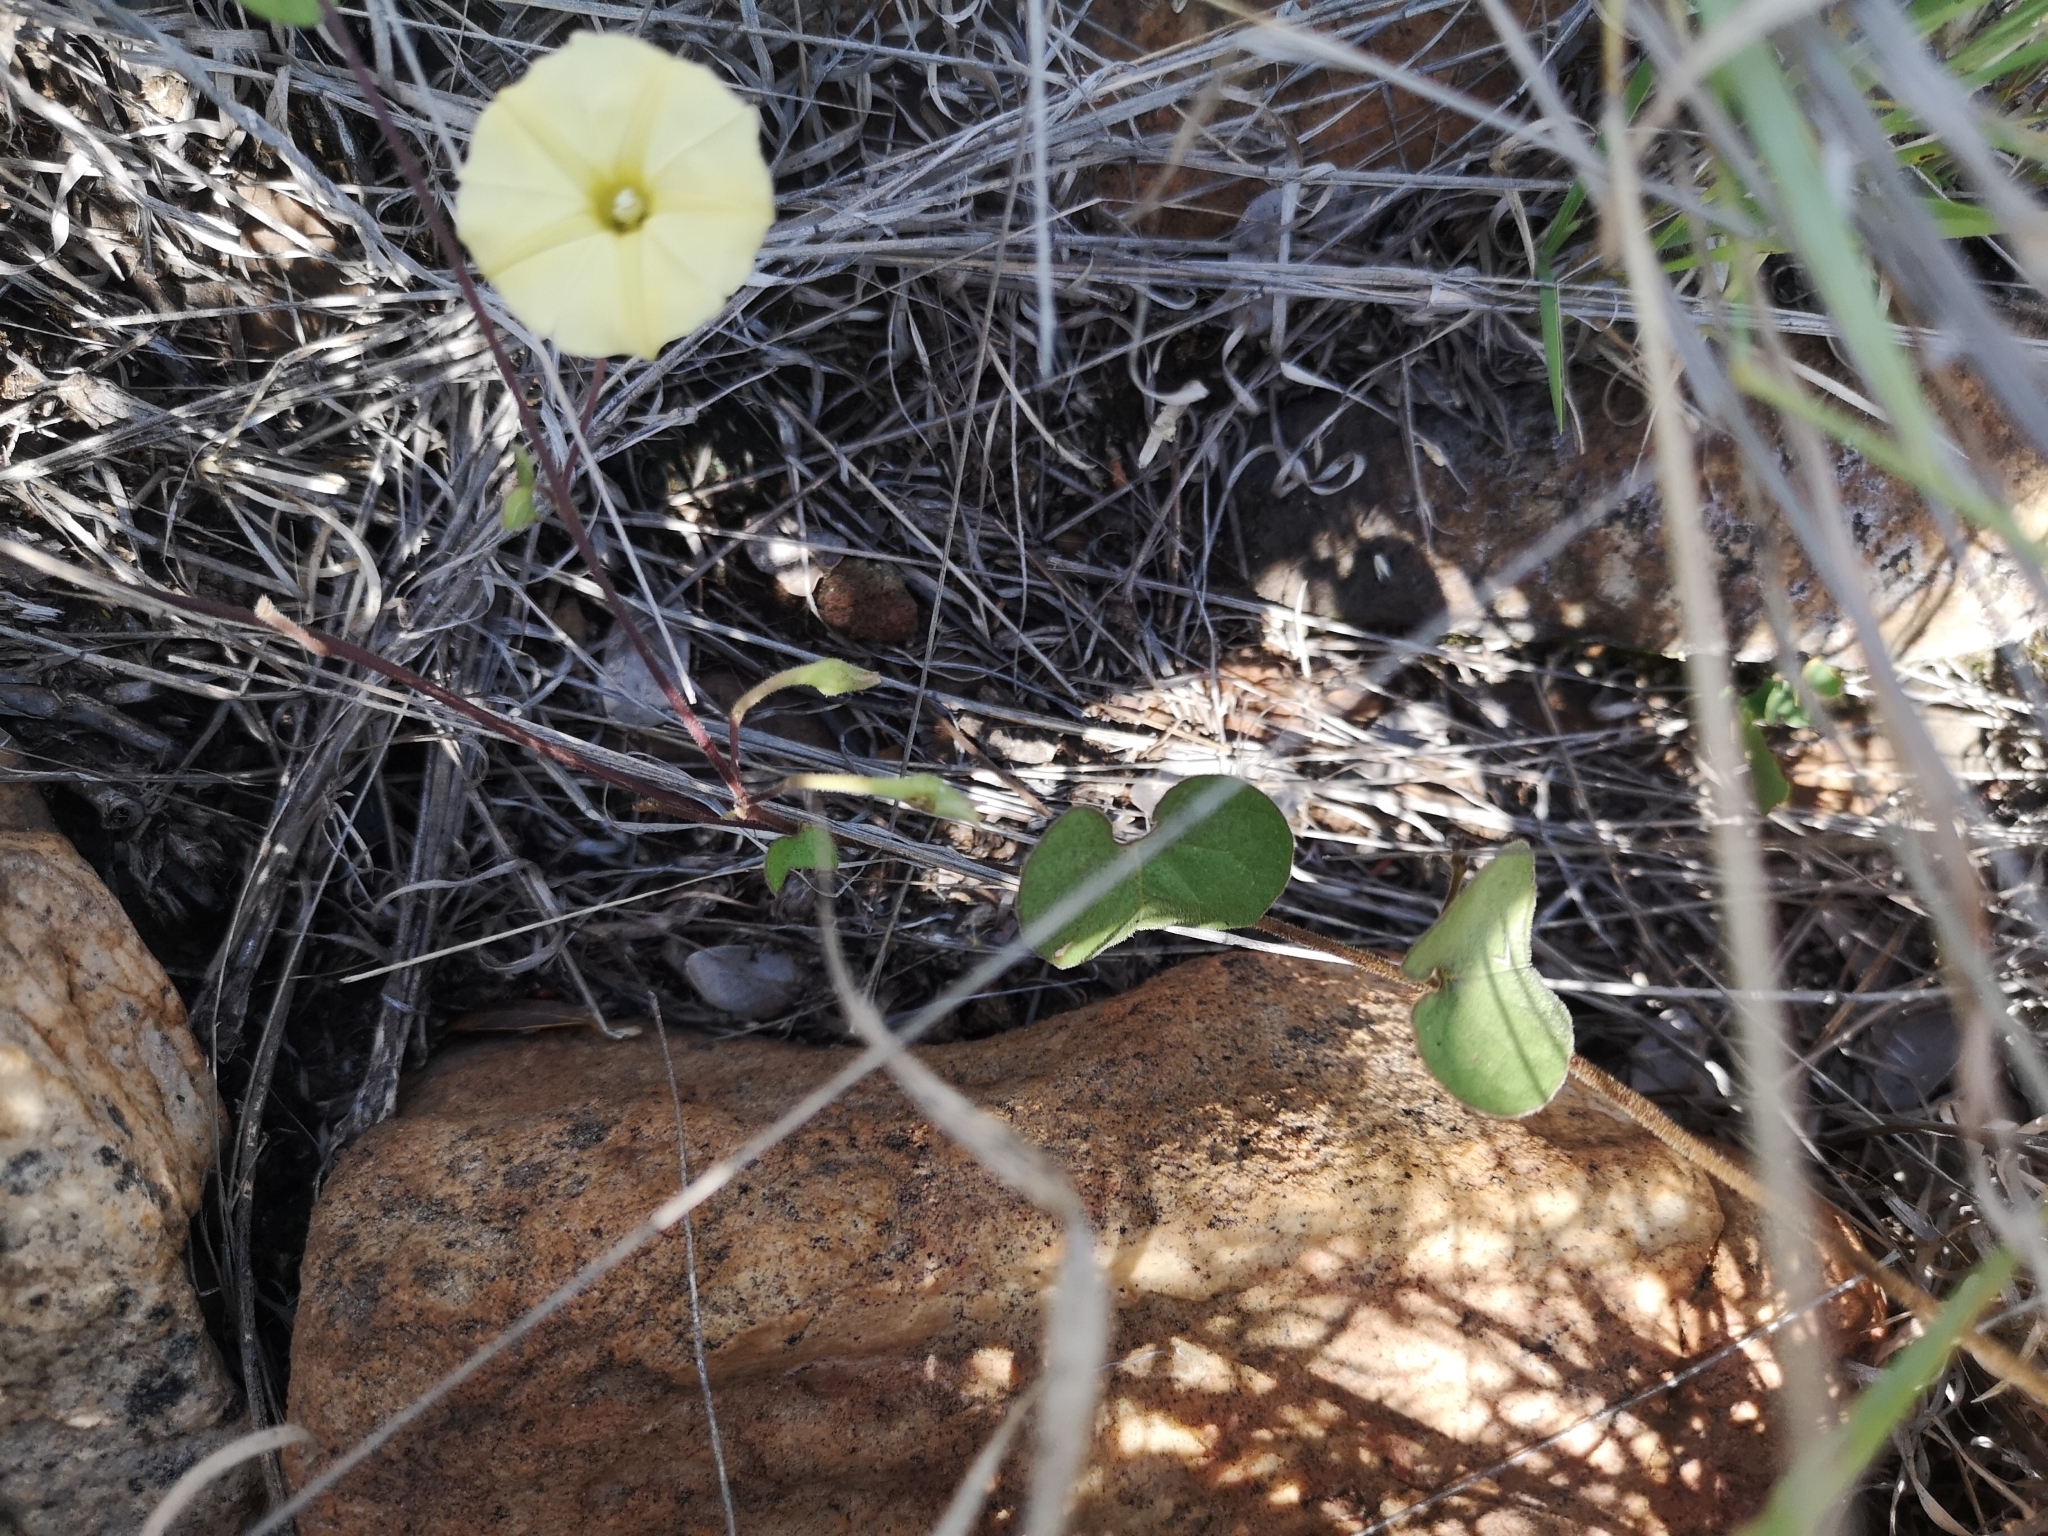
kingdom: Plantae
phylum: Tracheophyta
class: Magnoliopsida
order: Solanales
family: Convolvulaceae
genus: Ipomoea
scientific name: Ipomoea obscura
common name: Obscure morning-glory
